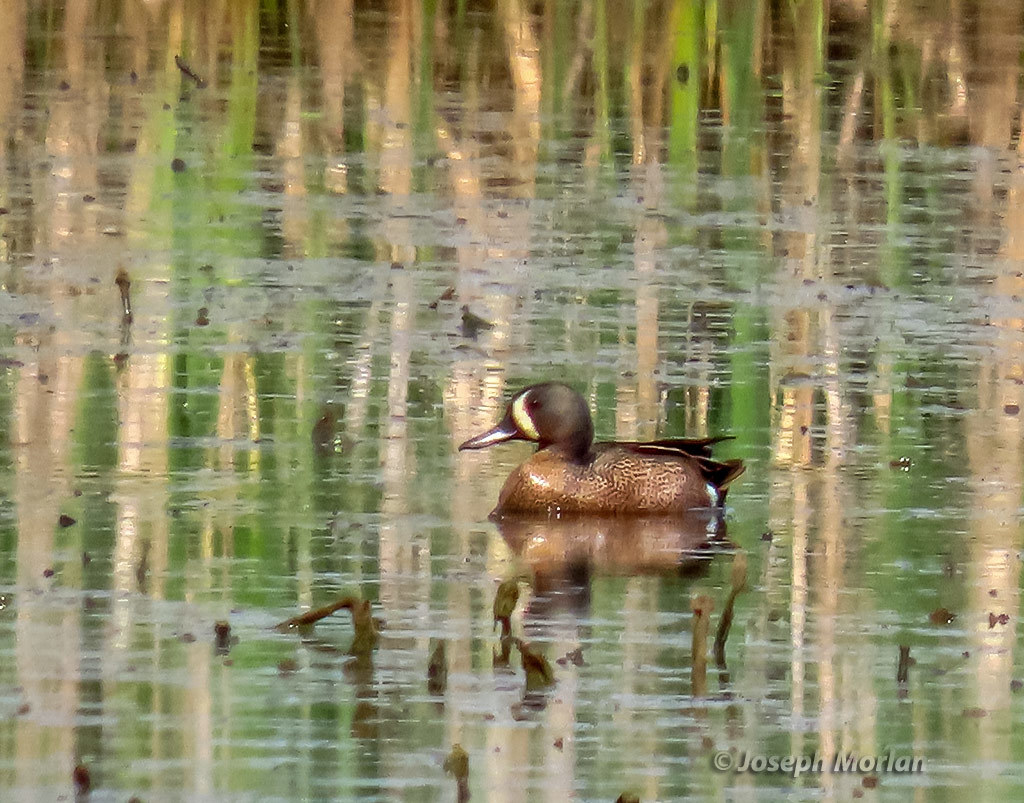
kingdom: Animalia
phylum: Chordata
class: Aves
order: Anseriformes
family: Anatidae
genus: Spatula
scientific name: Spatula discors
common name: Blue-winged teal
